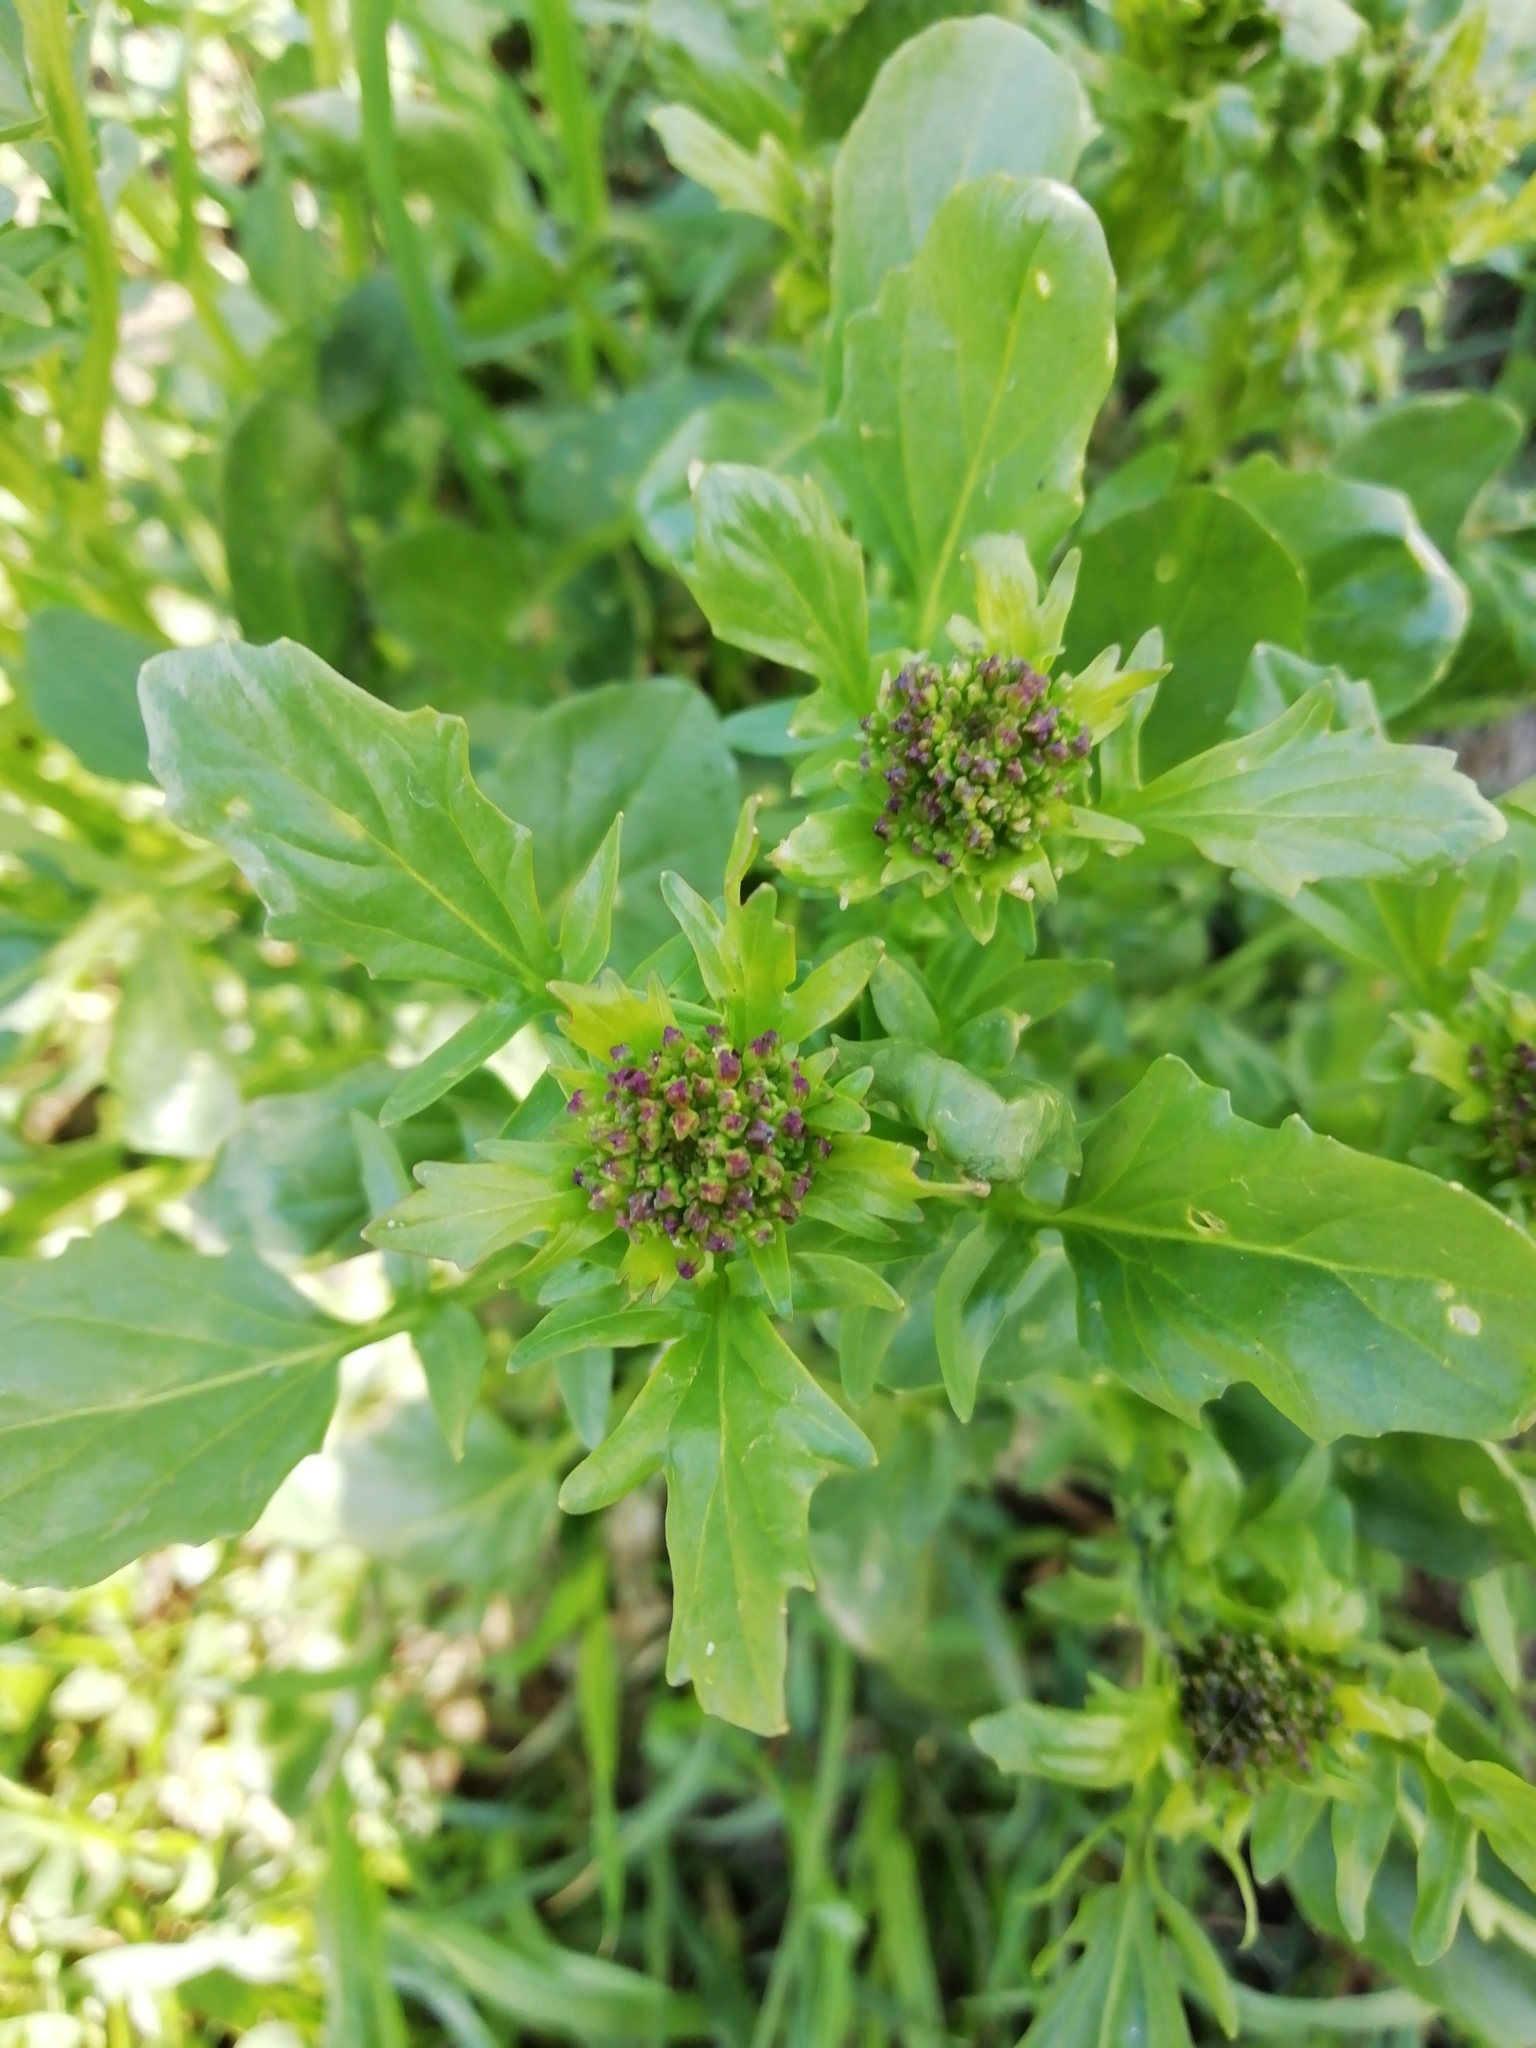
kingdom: Plantae
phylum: Tracheophyta
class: Magnoliopsida
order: Brassicales
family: Brassicaceae
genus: Barbarea
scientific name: Barbarea vulgaris
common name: Cressy-greens
